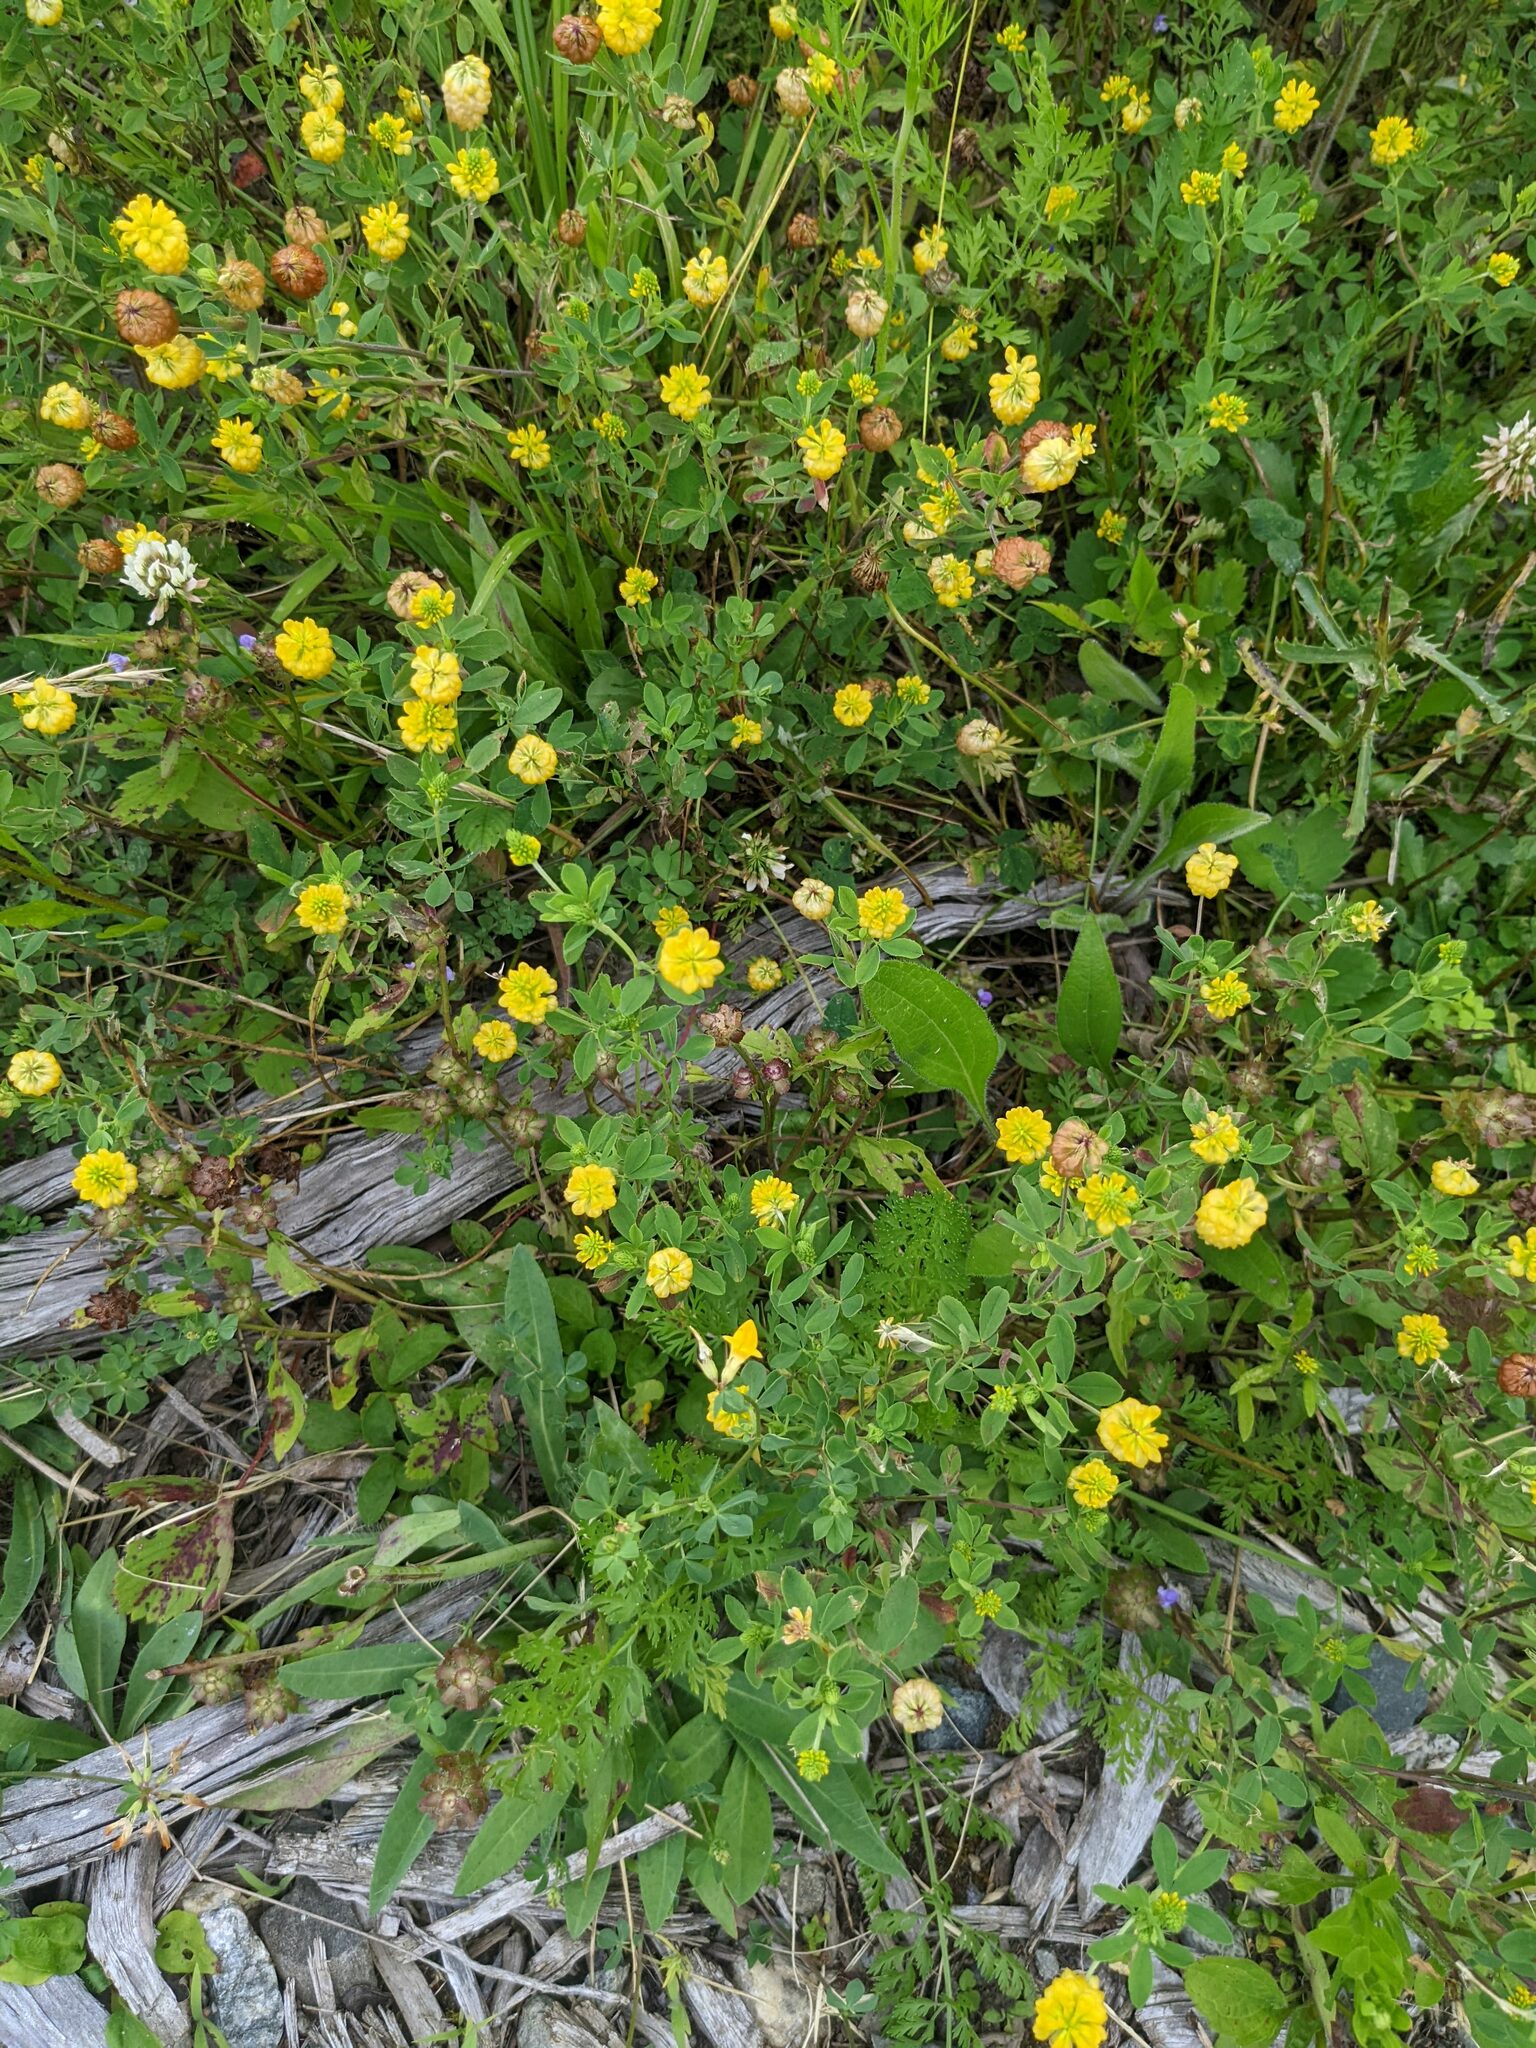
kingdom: Plantae
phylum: Tracheophyta
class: Magnoliopsida
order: Fabales
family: Fabaceae
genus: Trifolium
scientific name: Trifolium aureum
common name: Golden clover
